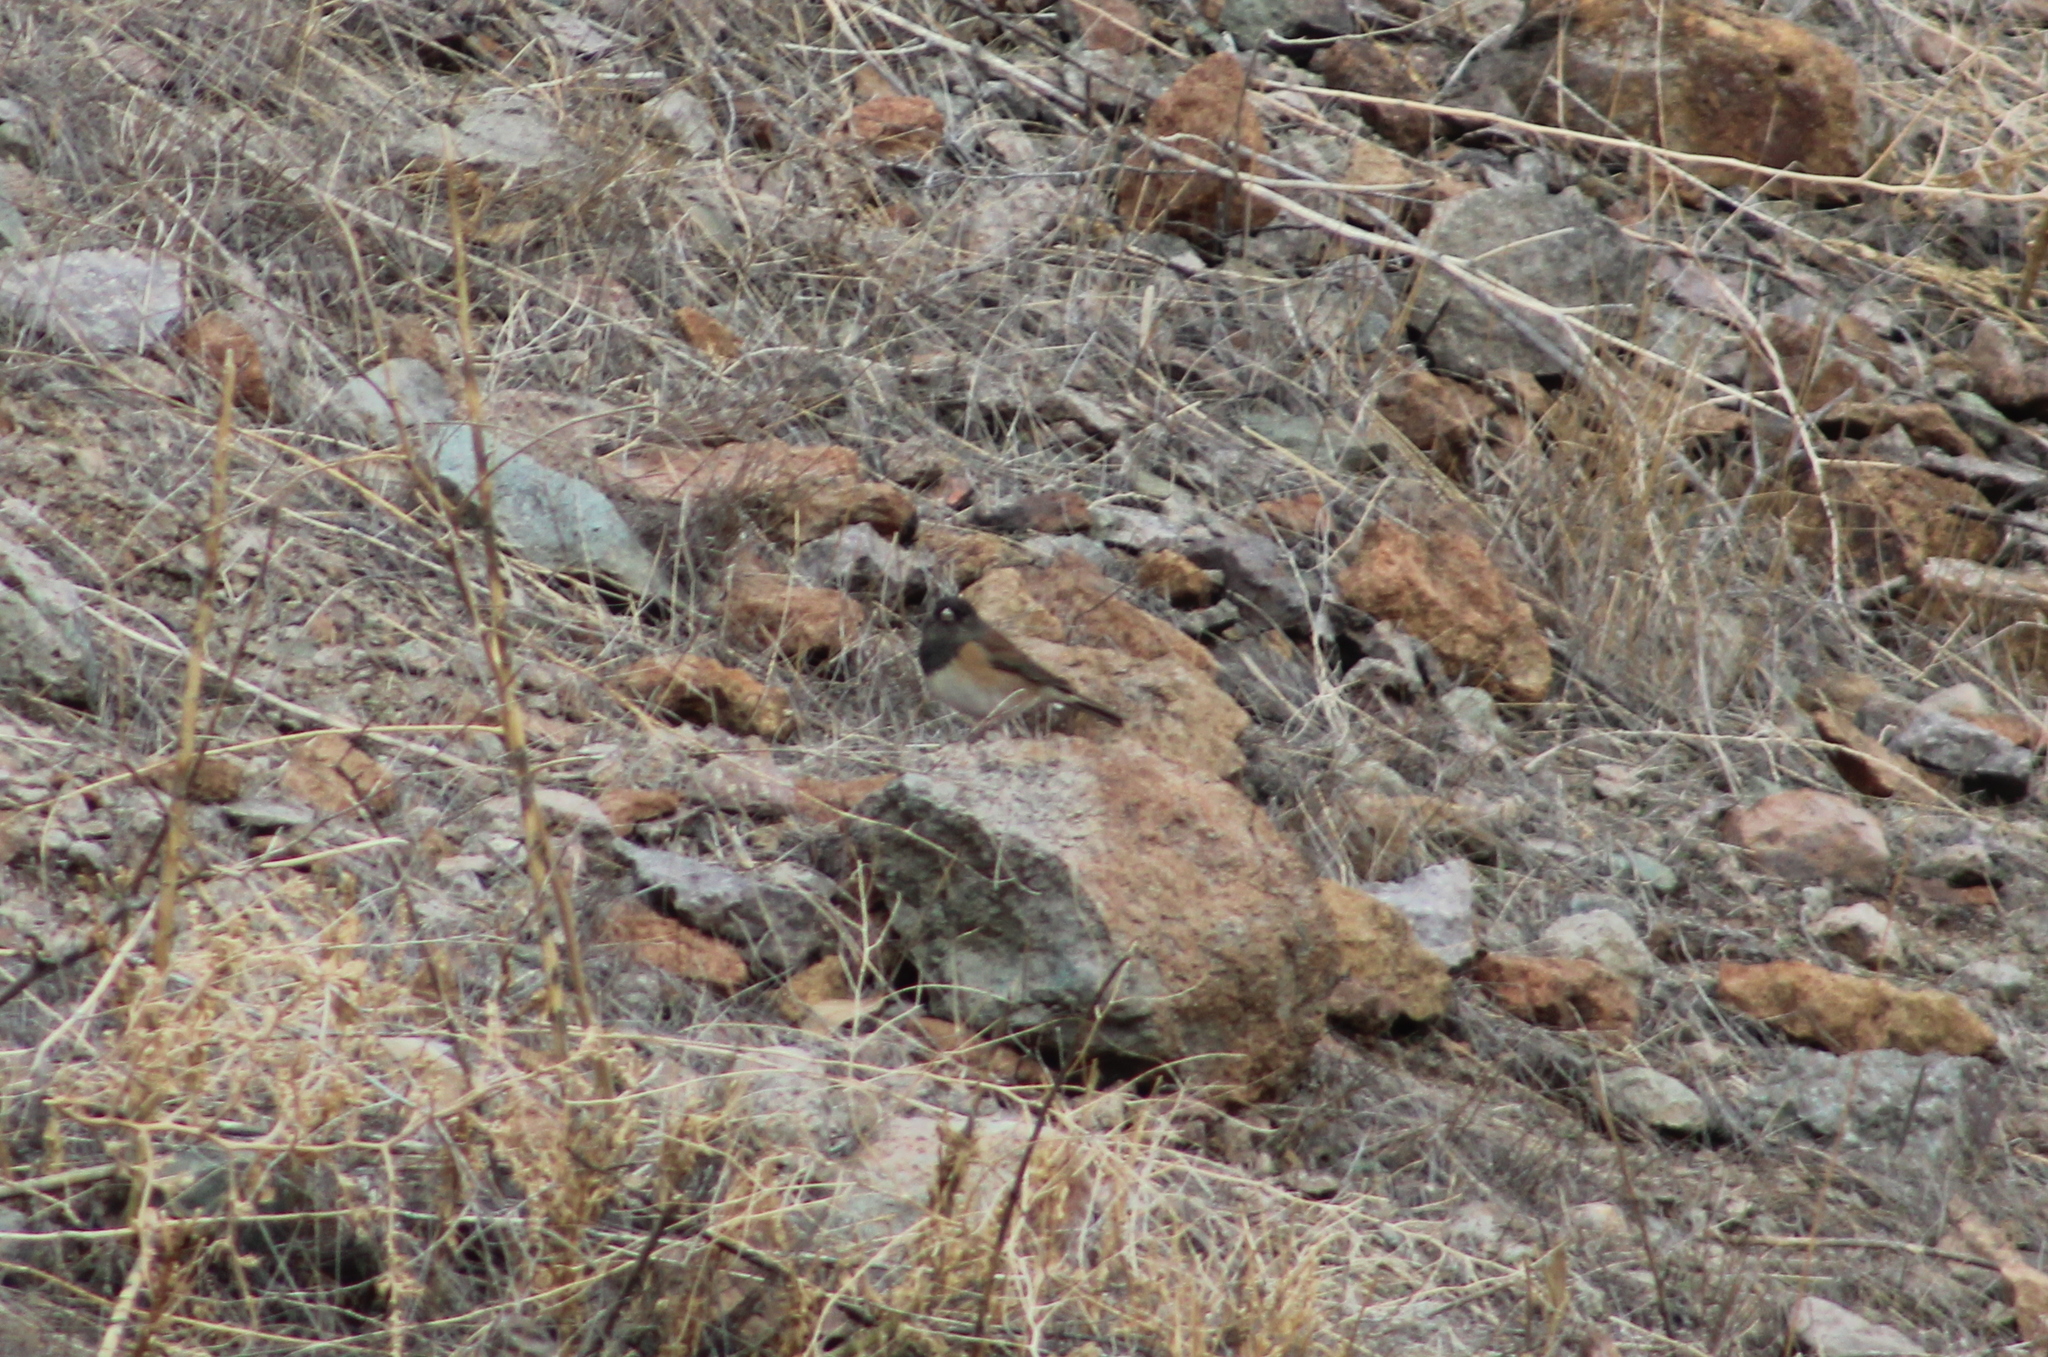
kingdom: Animalia
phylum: Chordata
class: Aves
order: Passeriformes
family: Passerellidae
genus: Junco
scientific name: Junco hyemalis
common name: Dark-eyed junco
